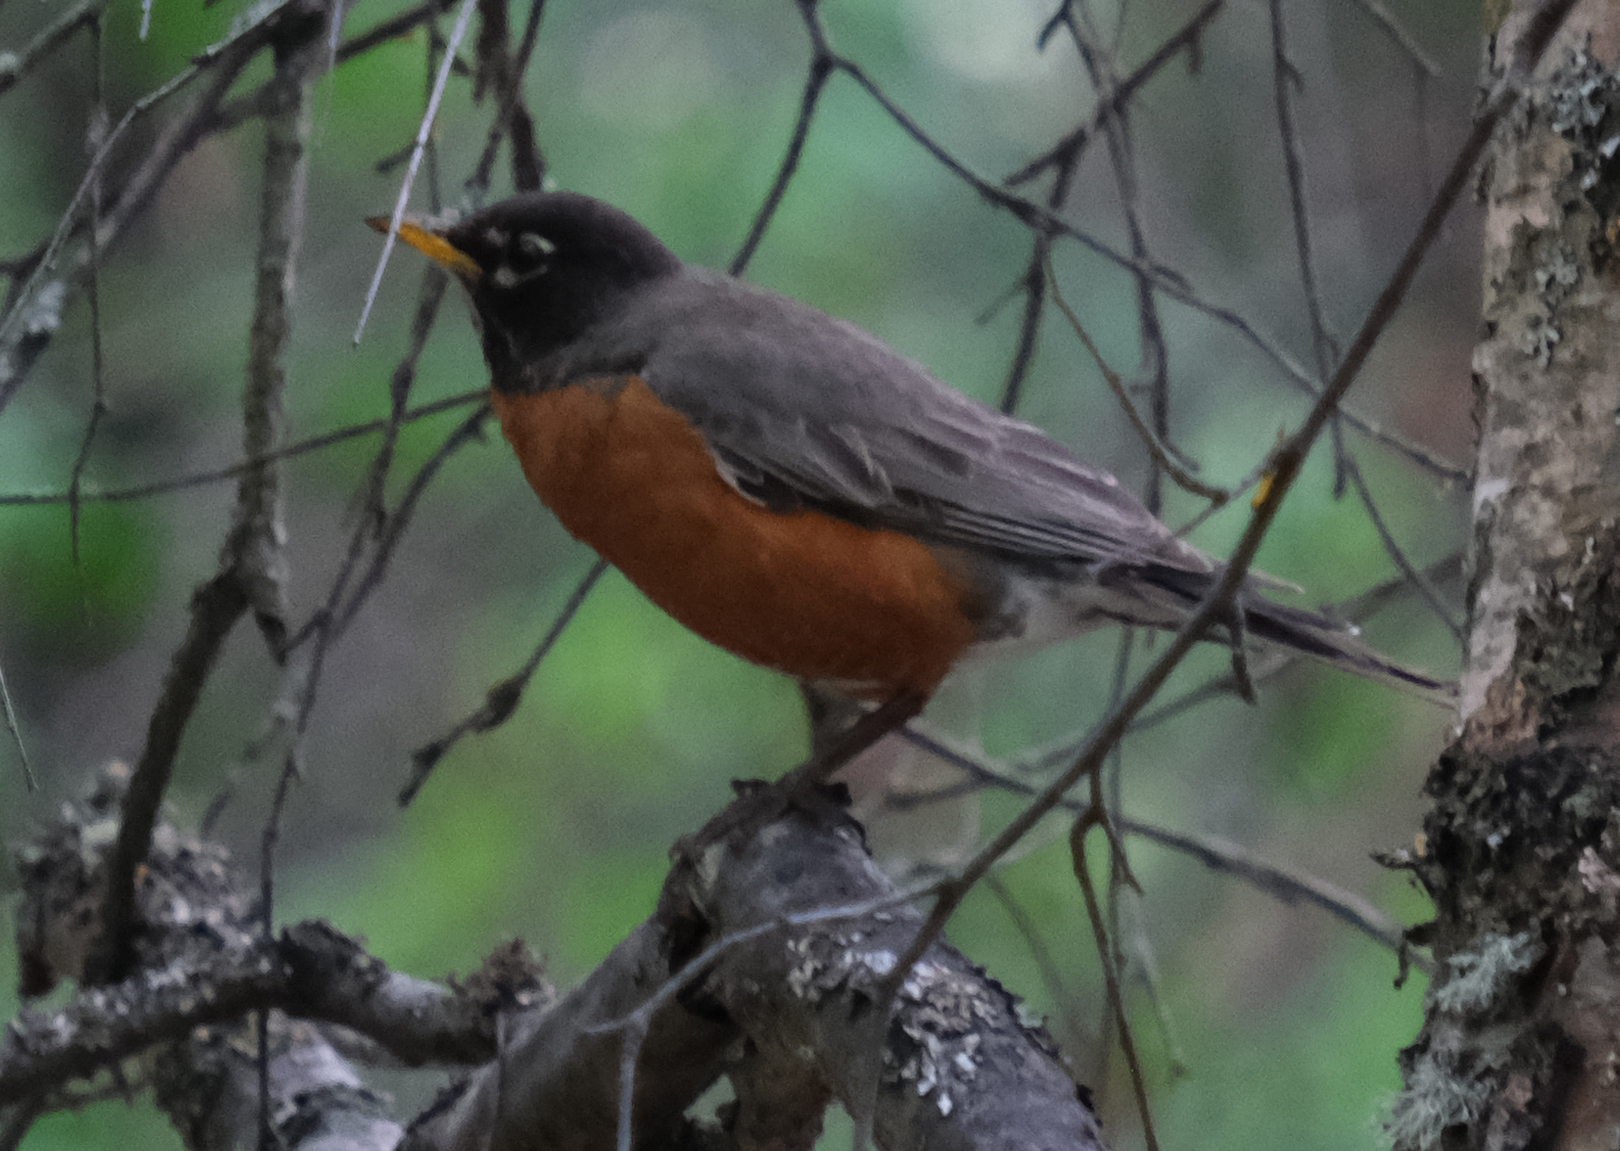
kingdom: Animalia
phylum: Chordata
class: Aves
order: Passeriformes
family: Turdidae
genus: Turdus
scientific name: Turdus migratorius
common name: American robin
